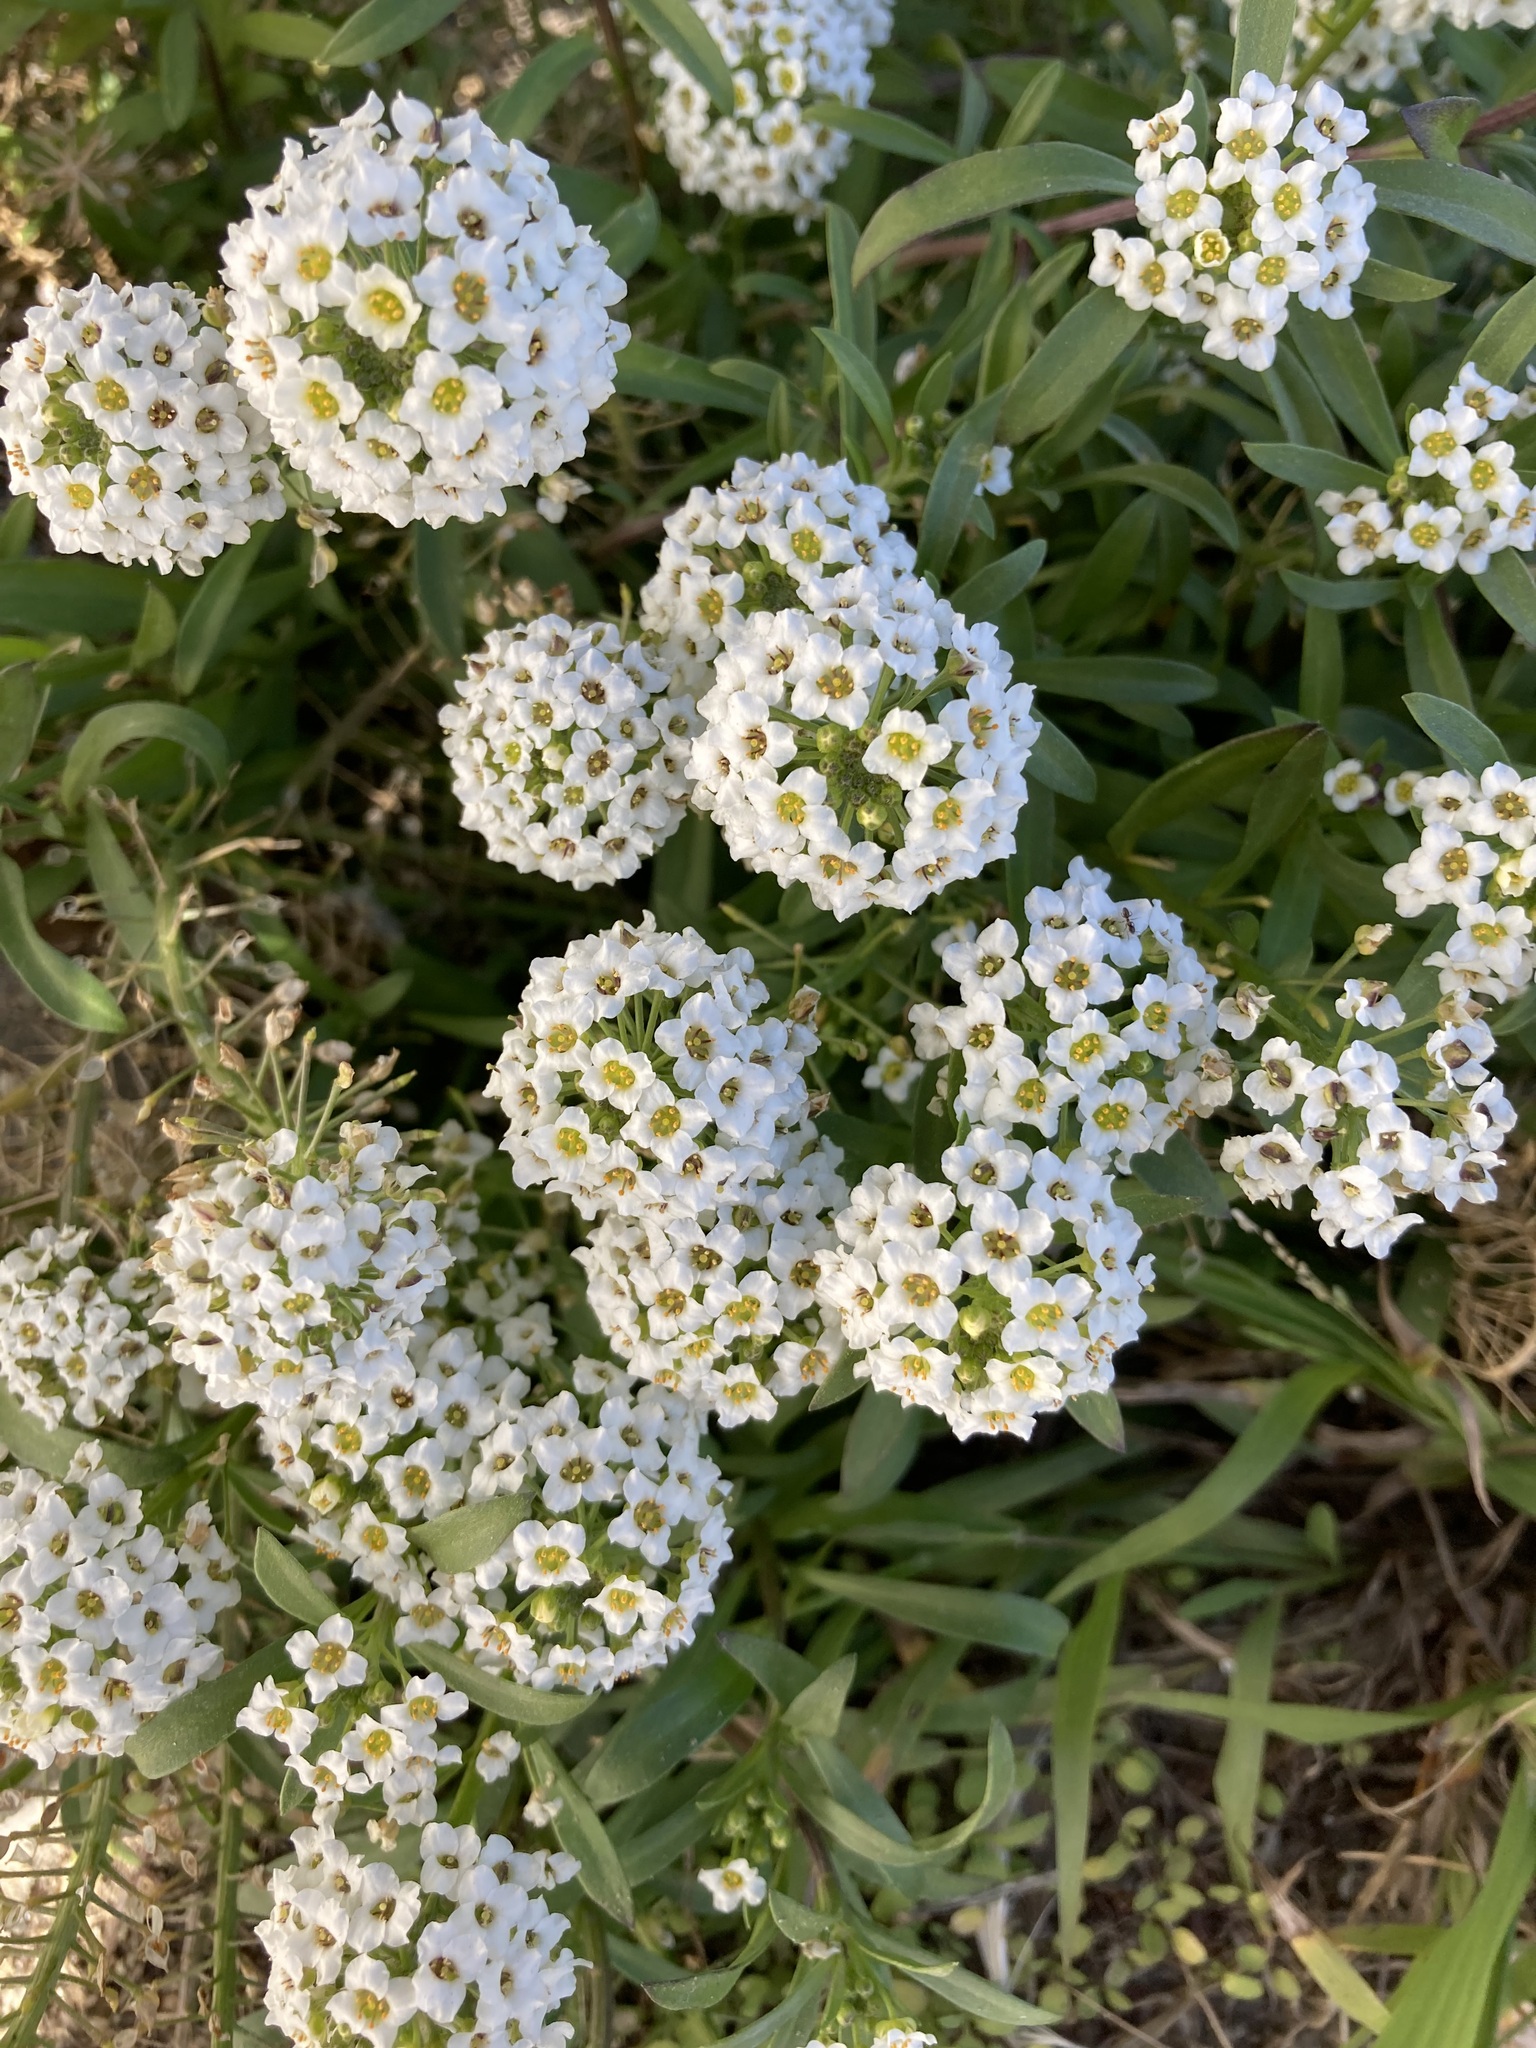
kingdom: Plantae
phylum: Tracheophyta
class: Magnoliopsida
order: Brassicales
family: Brassicaceae
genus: Lobularia
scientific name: Lobularia maritima
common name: Sweet alison
